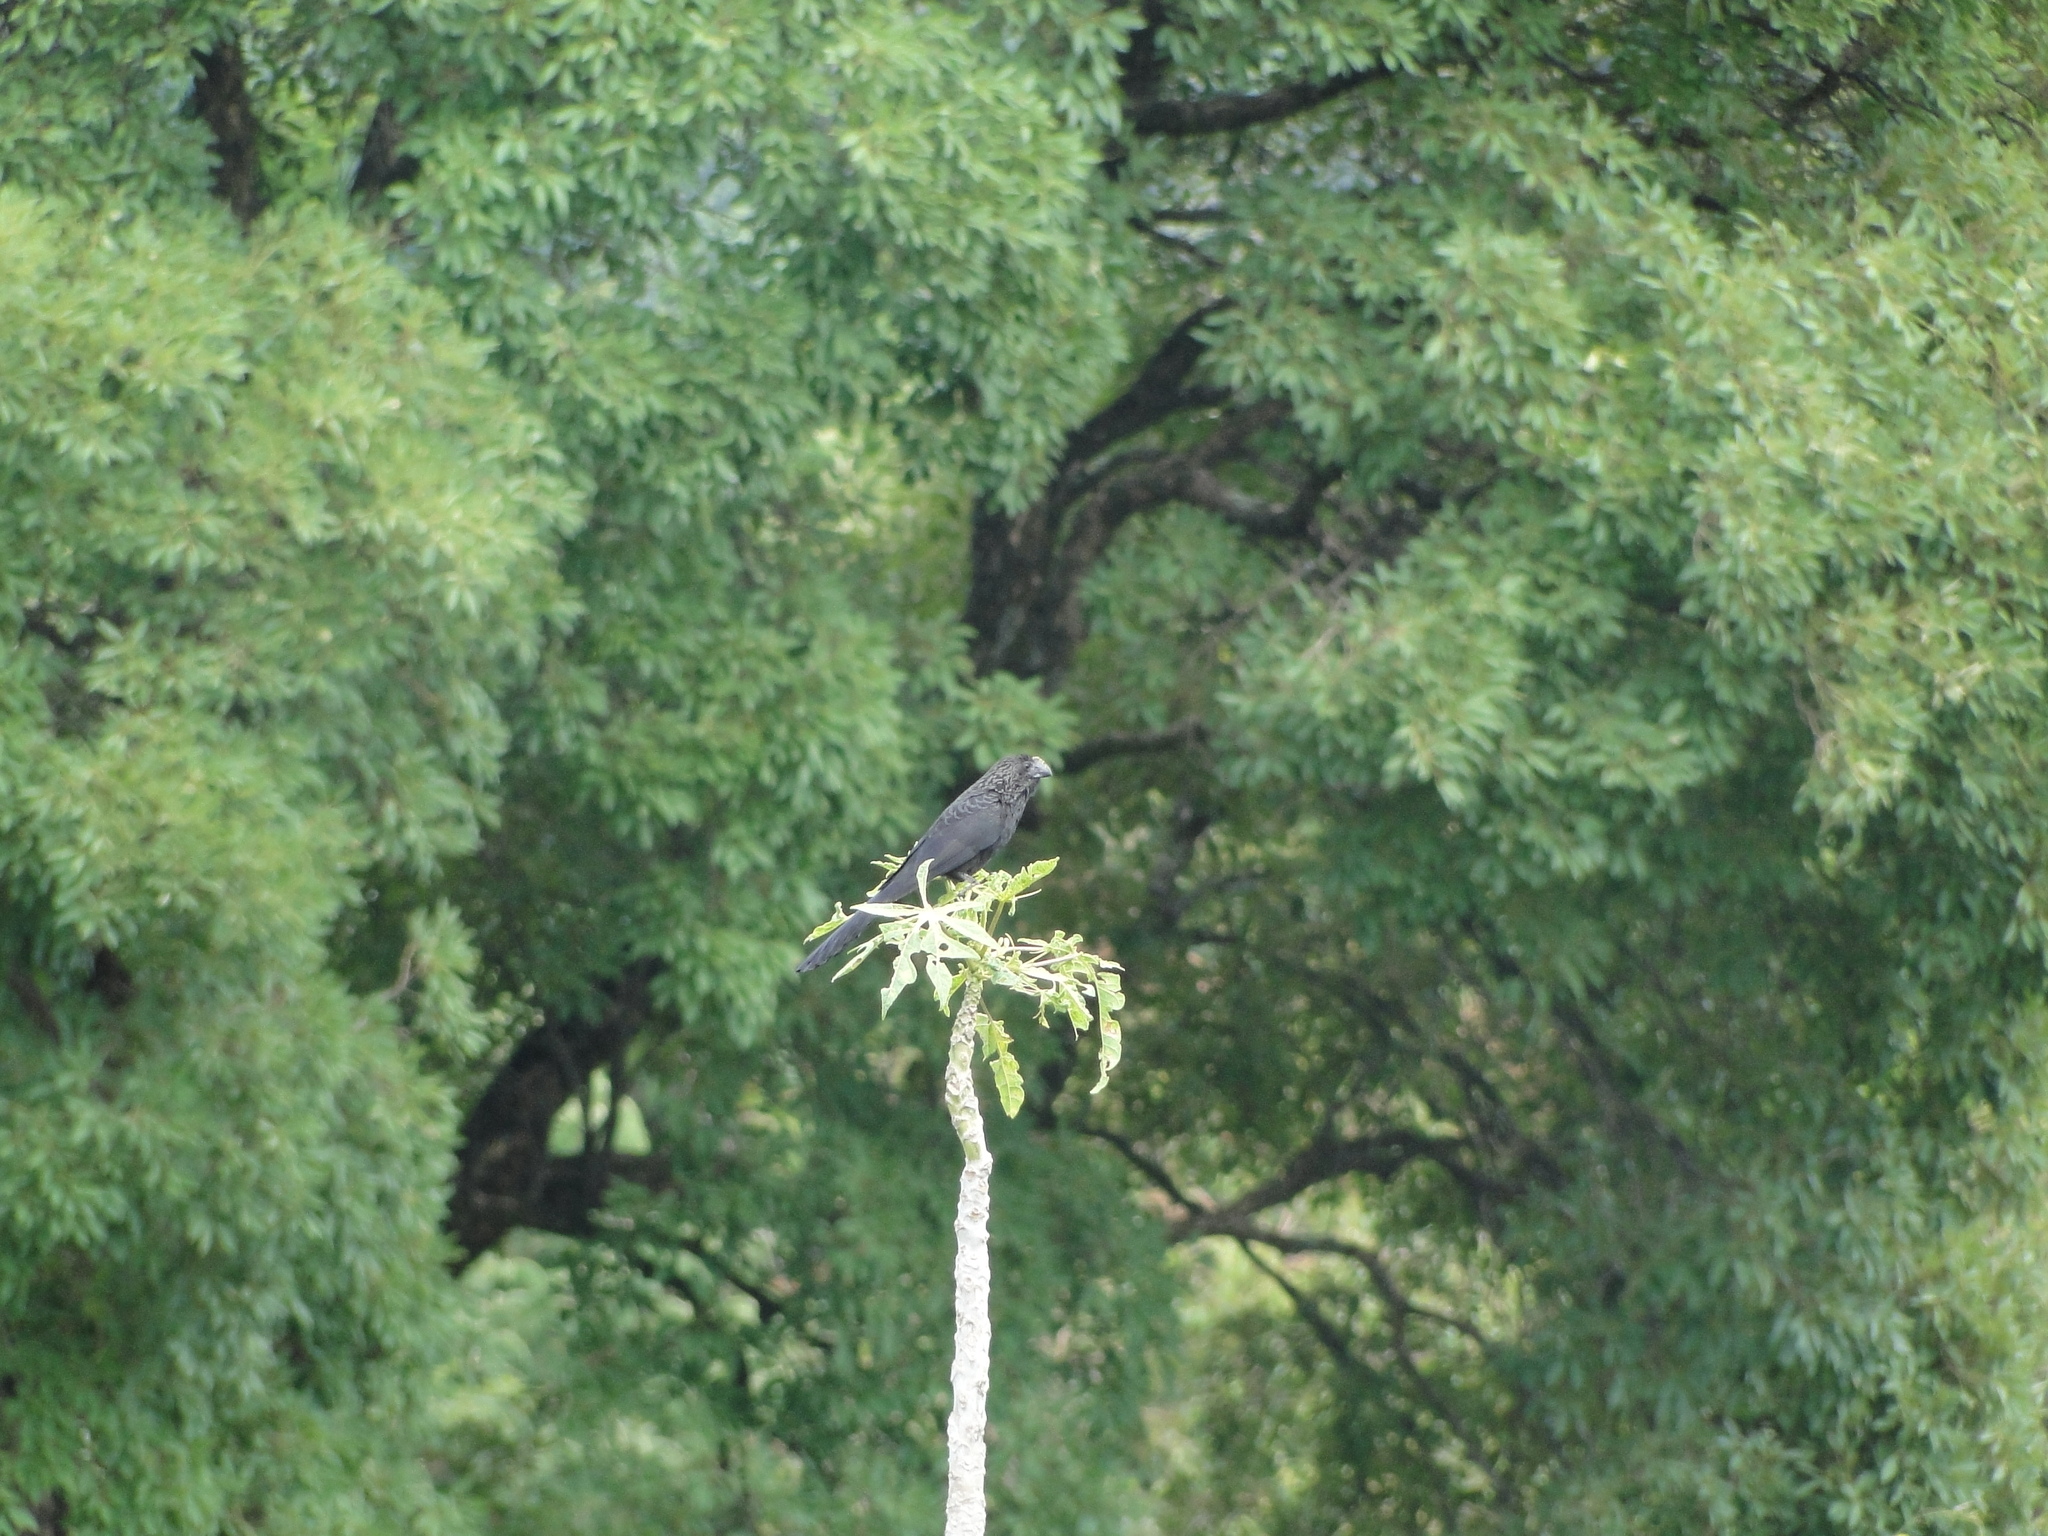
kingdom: Animalia
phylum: Chordata
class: Aves
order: Cuculiformes
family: Cuculidae
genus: Crotophaga
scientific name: Crotophaga ani
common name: Smooth-billed ani
